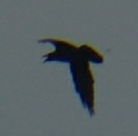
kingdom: Animalia
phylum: Chordata
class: Aves
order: Passeriformes
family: Corvidae
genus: Corvus
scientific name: Corvus corax
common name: Common raven
